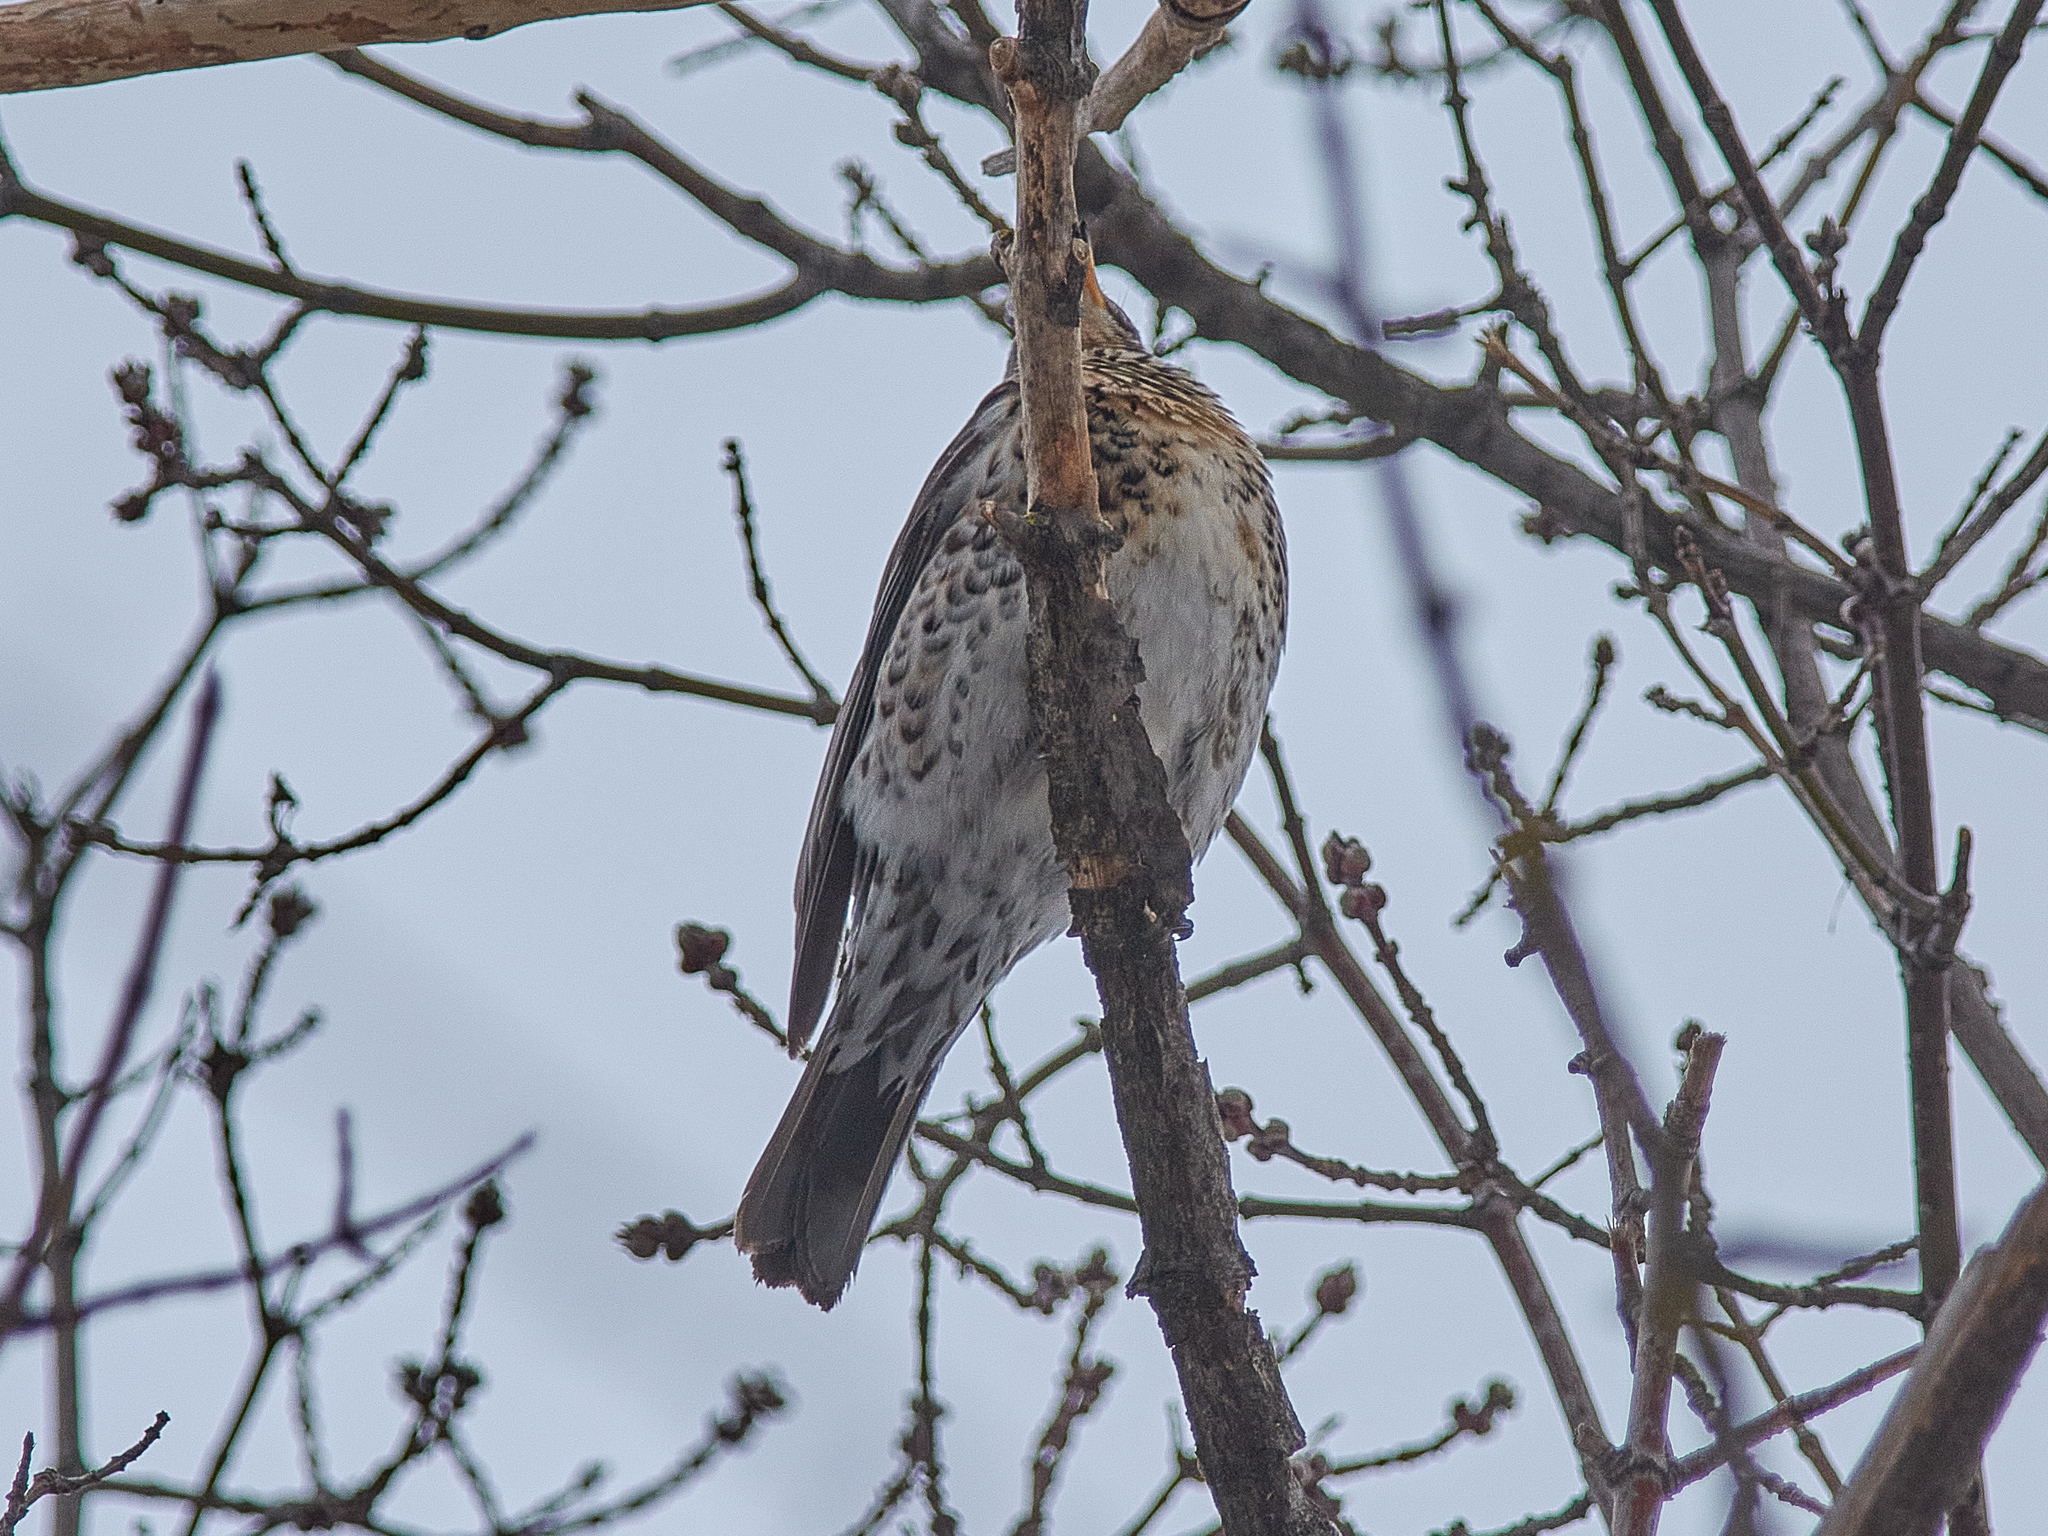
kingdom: Animalia
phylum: Chordata
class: Aves
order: Passeriformes
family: Turdidae
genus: Turdus
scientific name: Turdus pilaris
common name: Fieldfare
